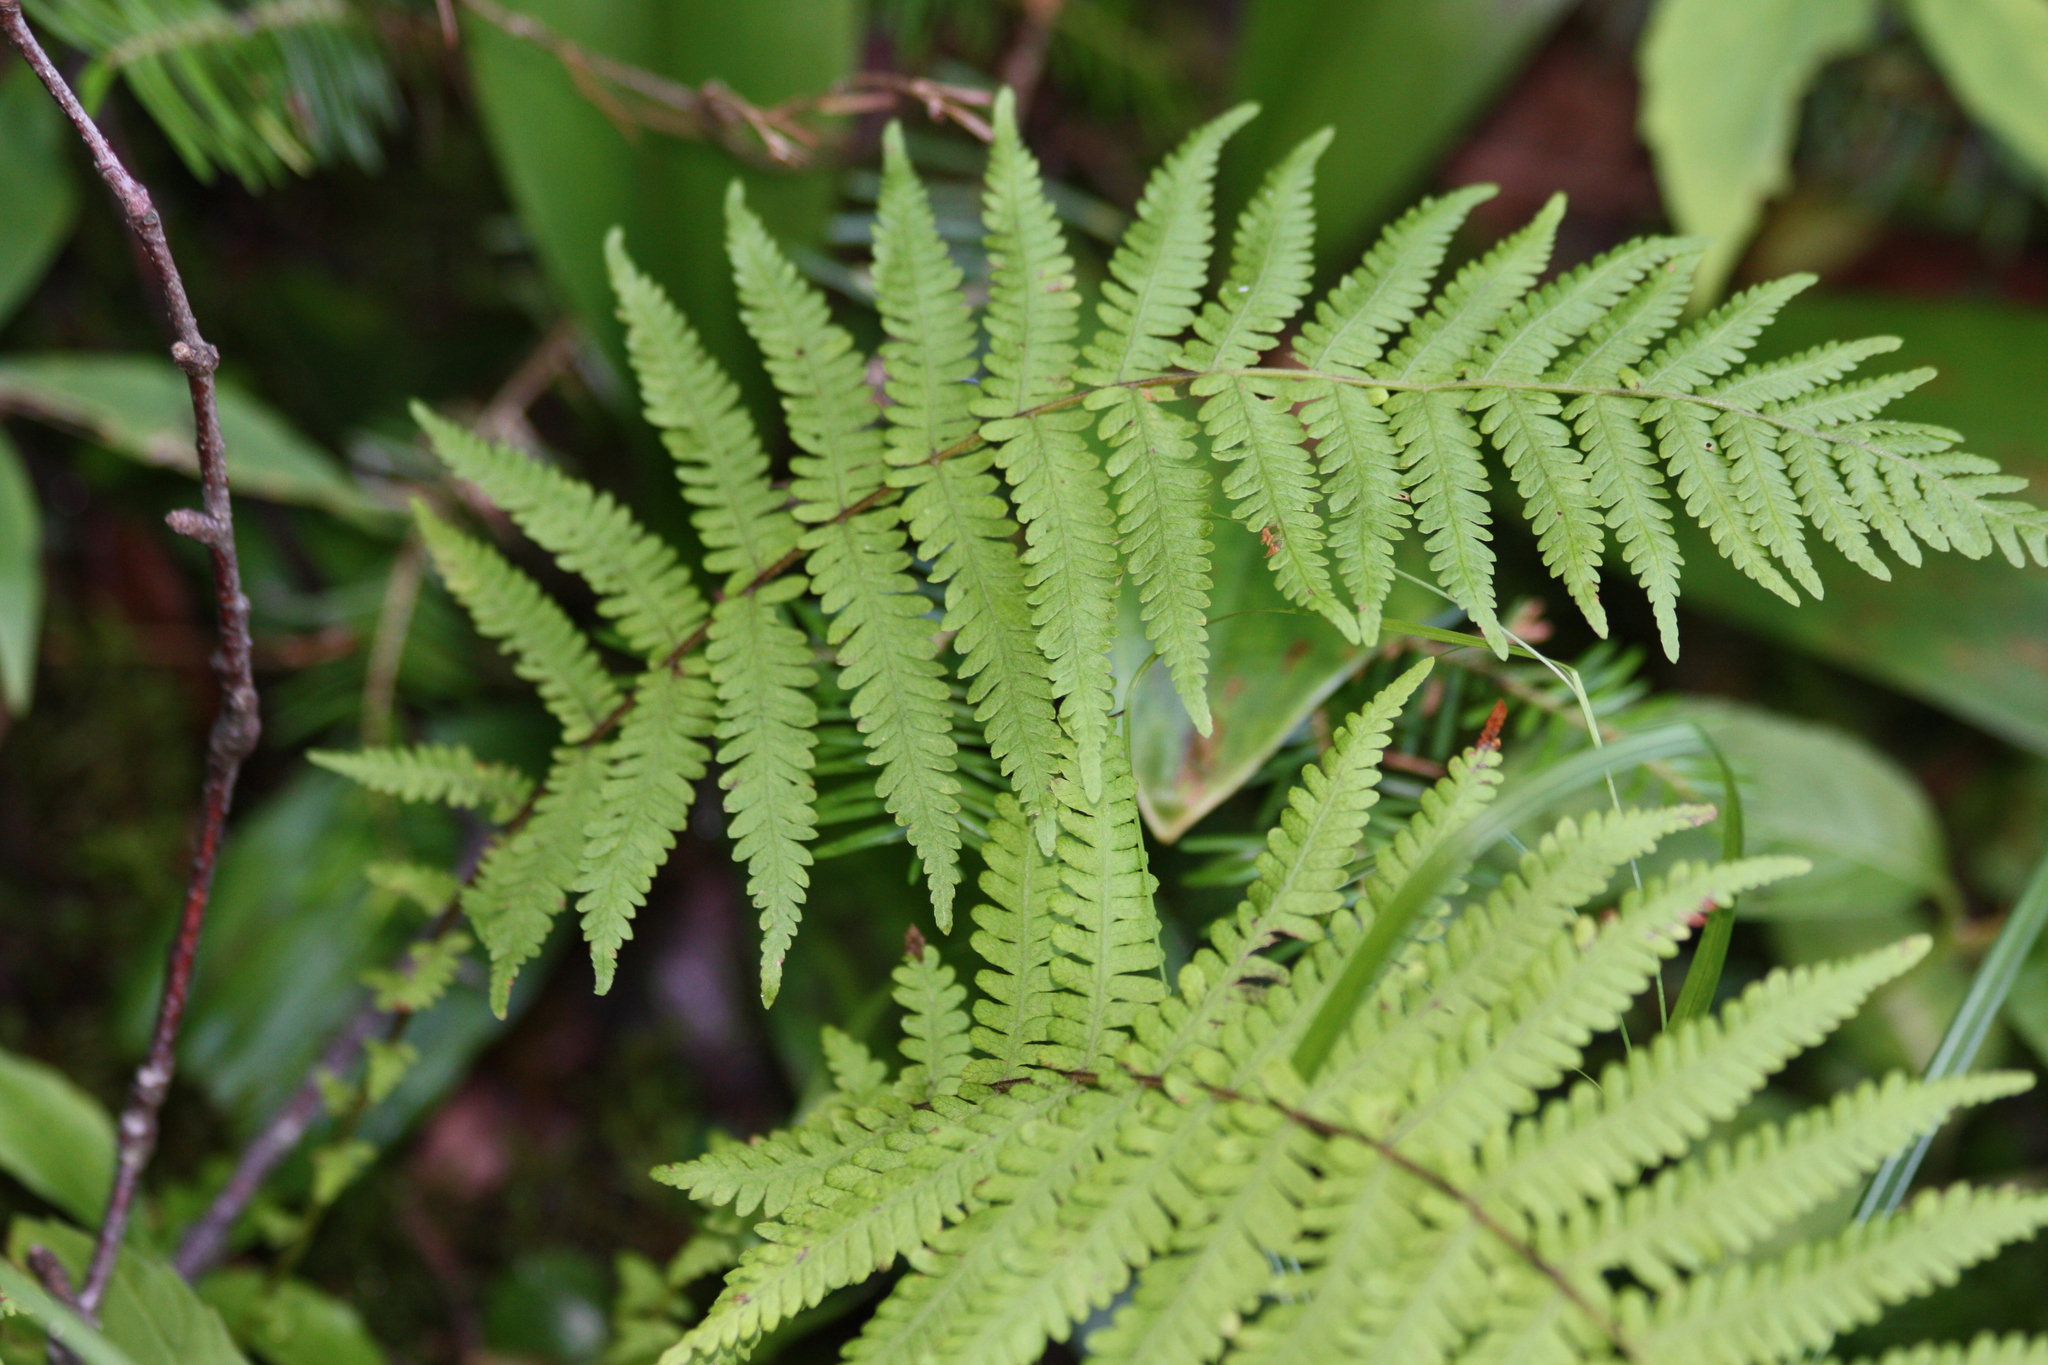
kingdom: Plantae
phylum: Tracheophyta
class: Polypodiopsida
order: Polypodiales
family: Thelypteridaceae
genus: Amauropelta
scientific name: Amauropelta noveboracensis
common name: New york fern
